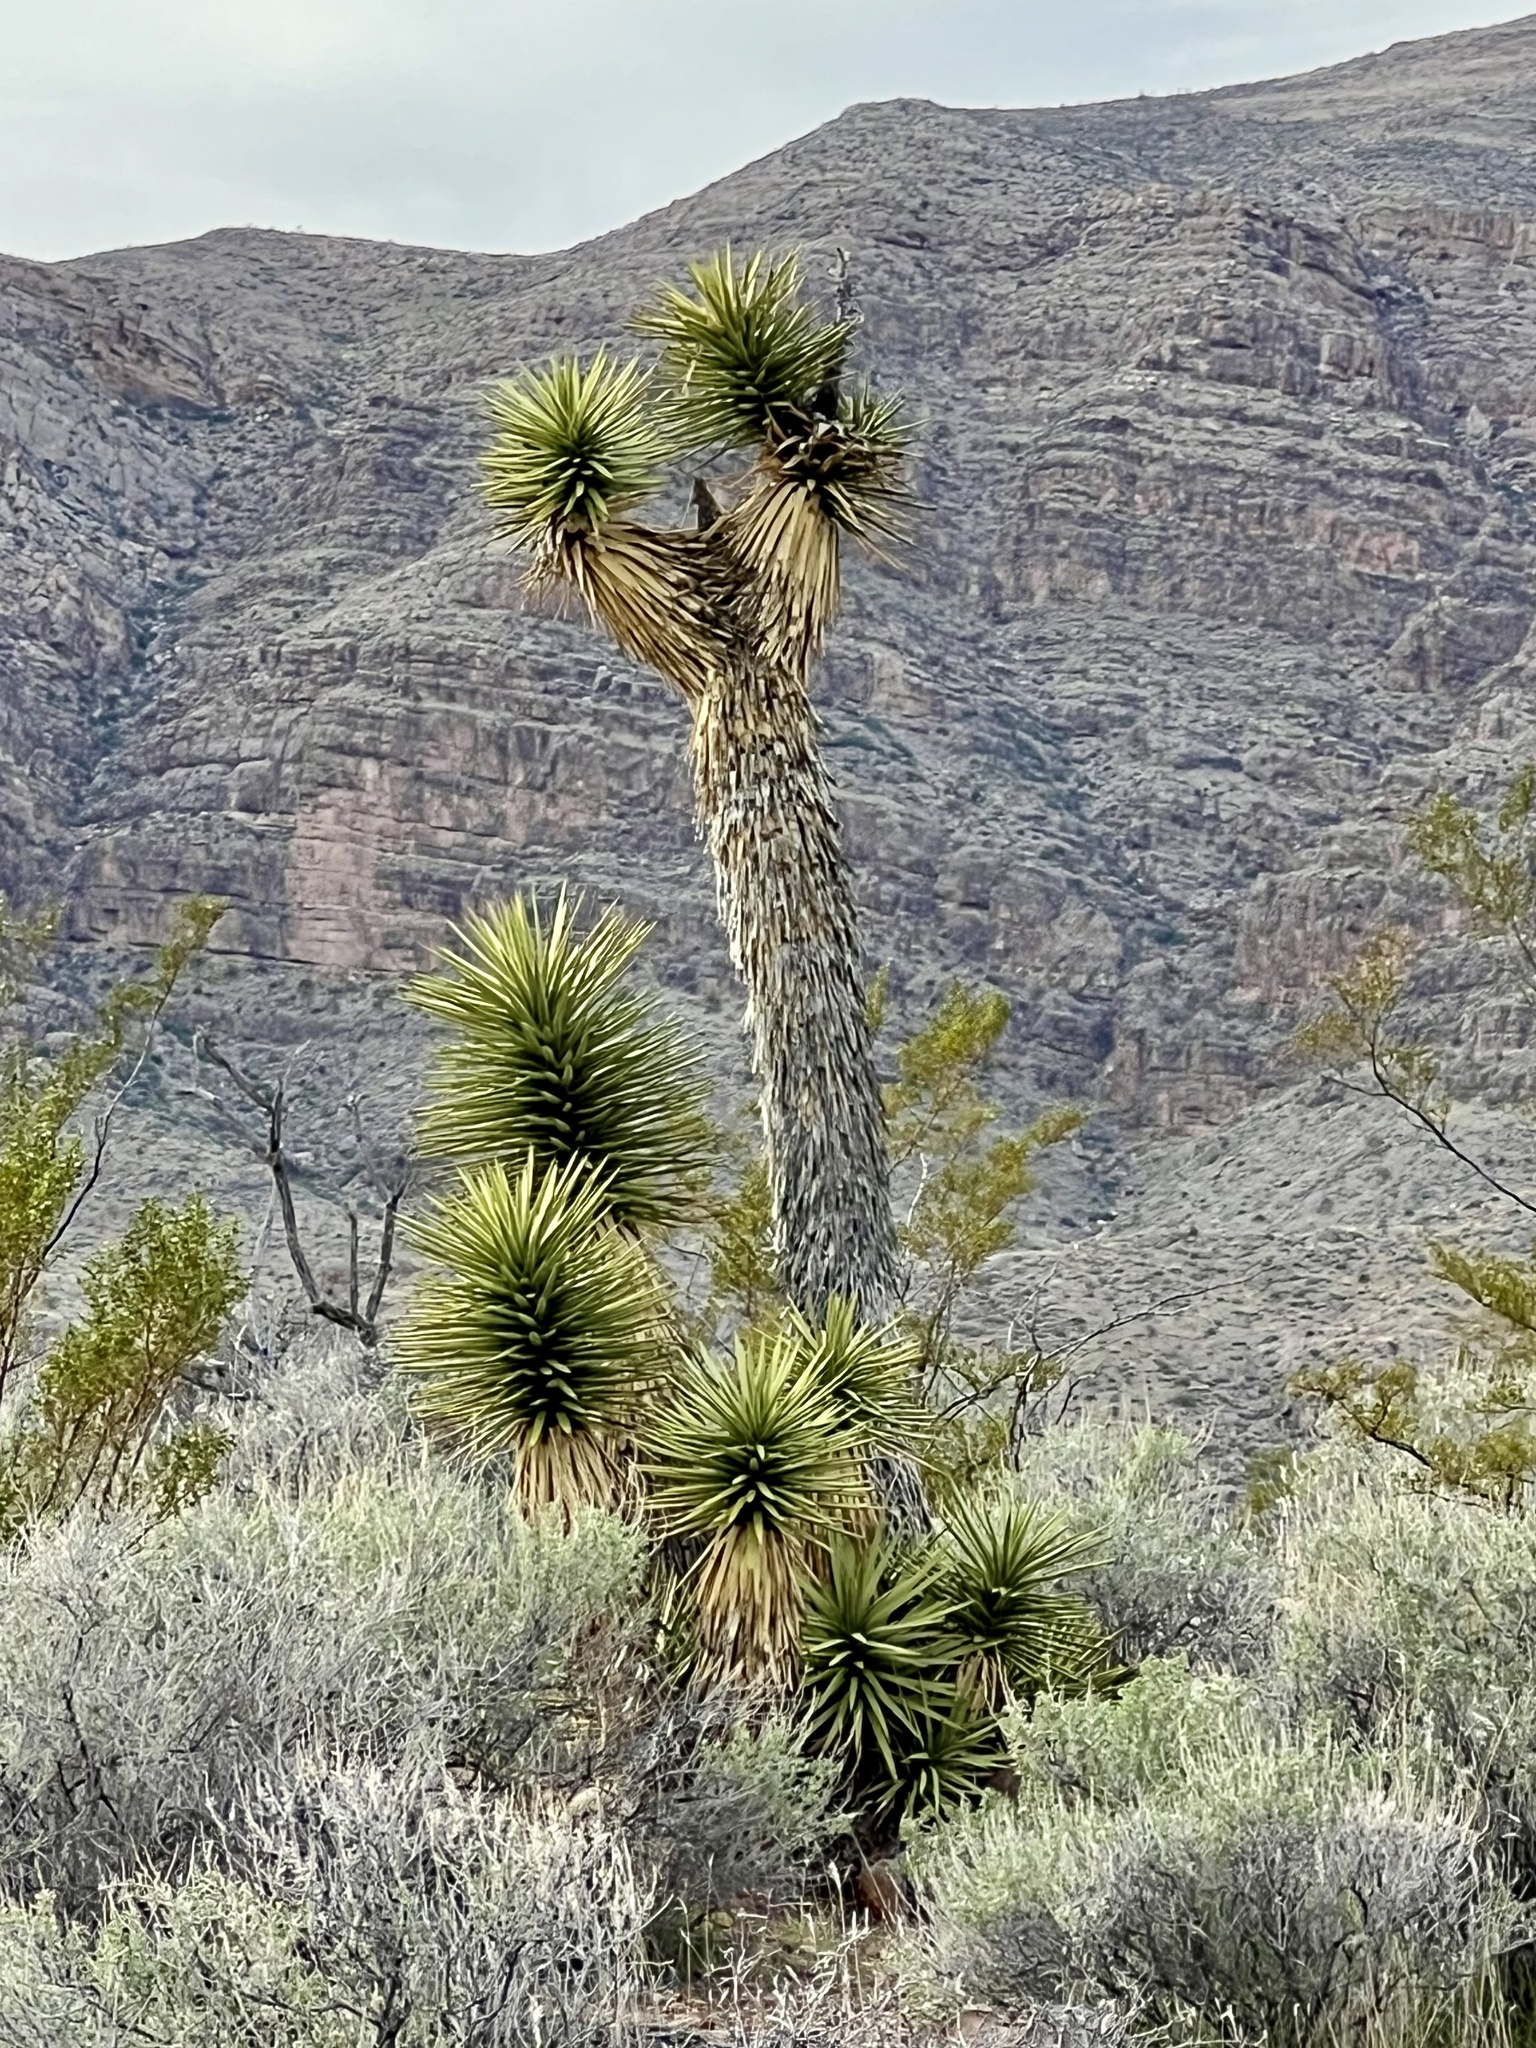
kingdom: Plantae
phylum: Tracheophyta
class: Liliopsida
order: Asparagales
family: Asparagaceae
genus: Yucca
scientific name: Yucca brevifolia
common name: Joshua tree
